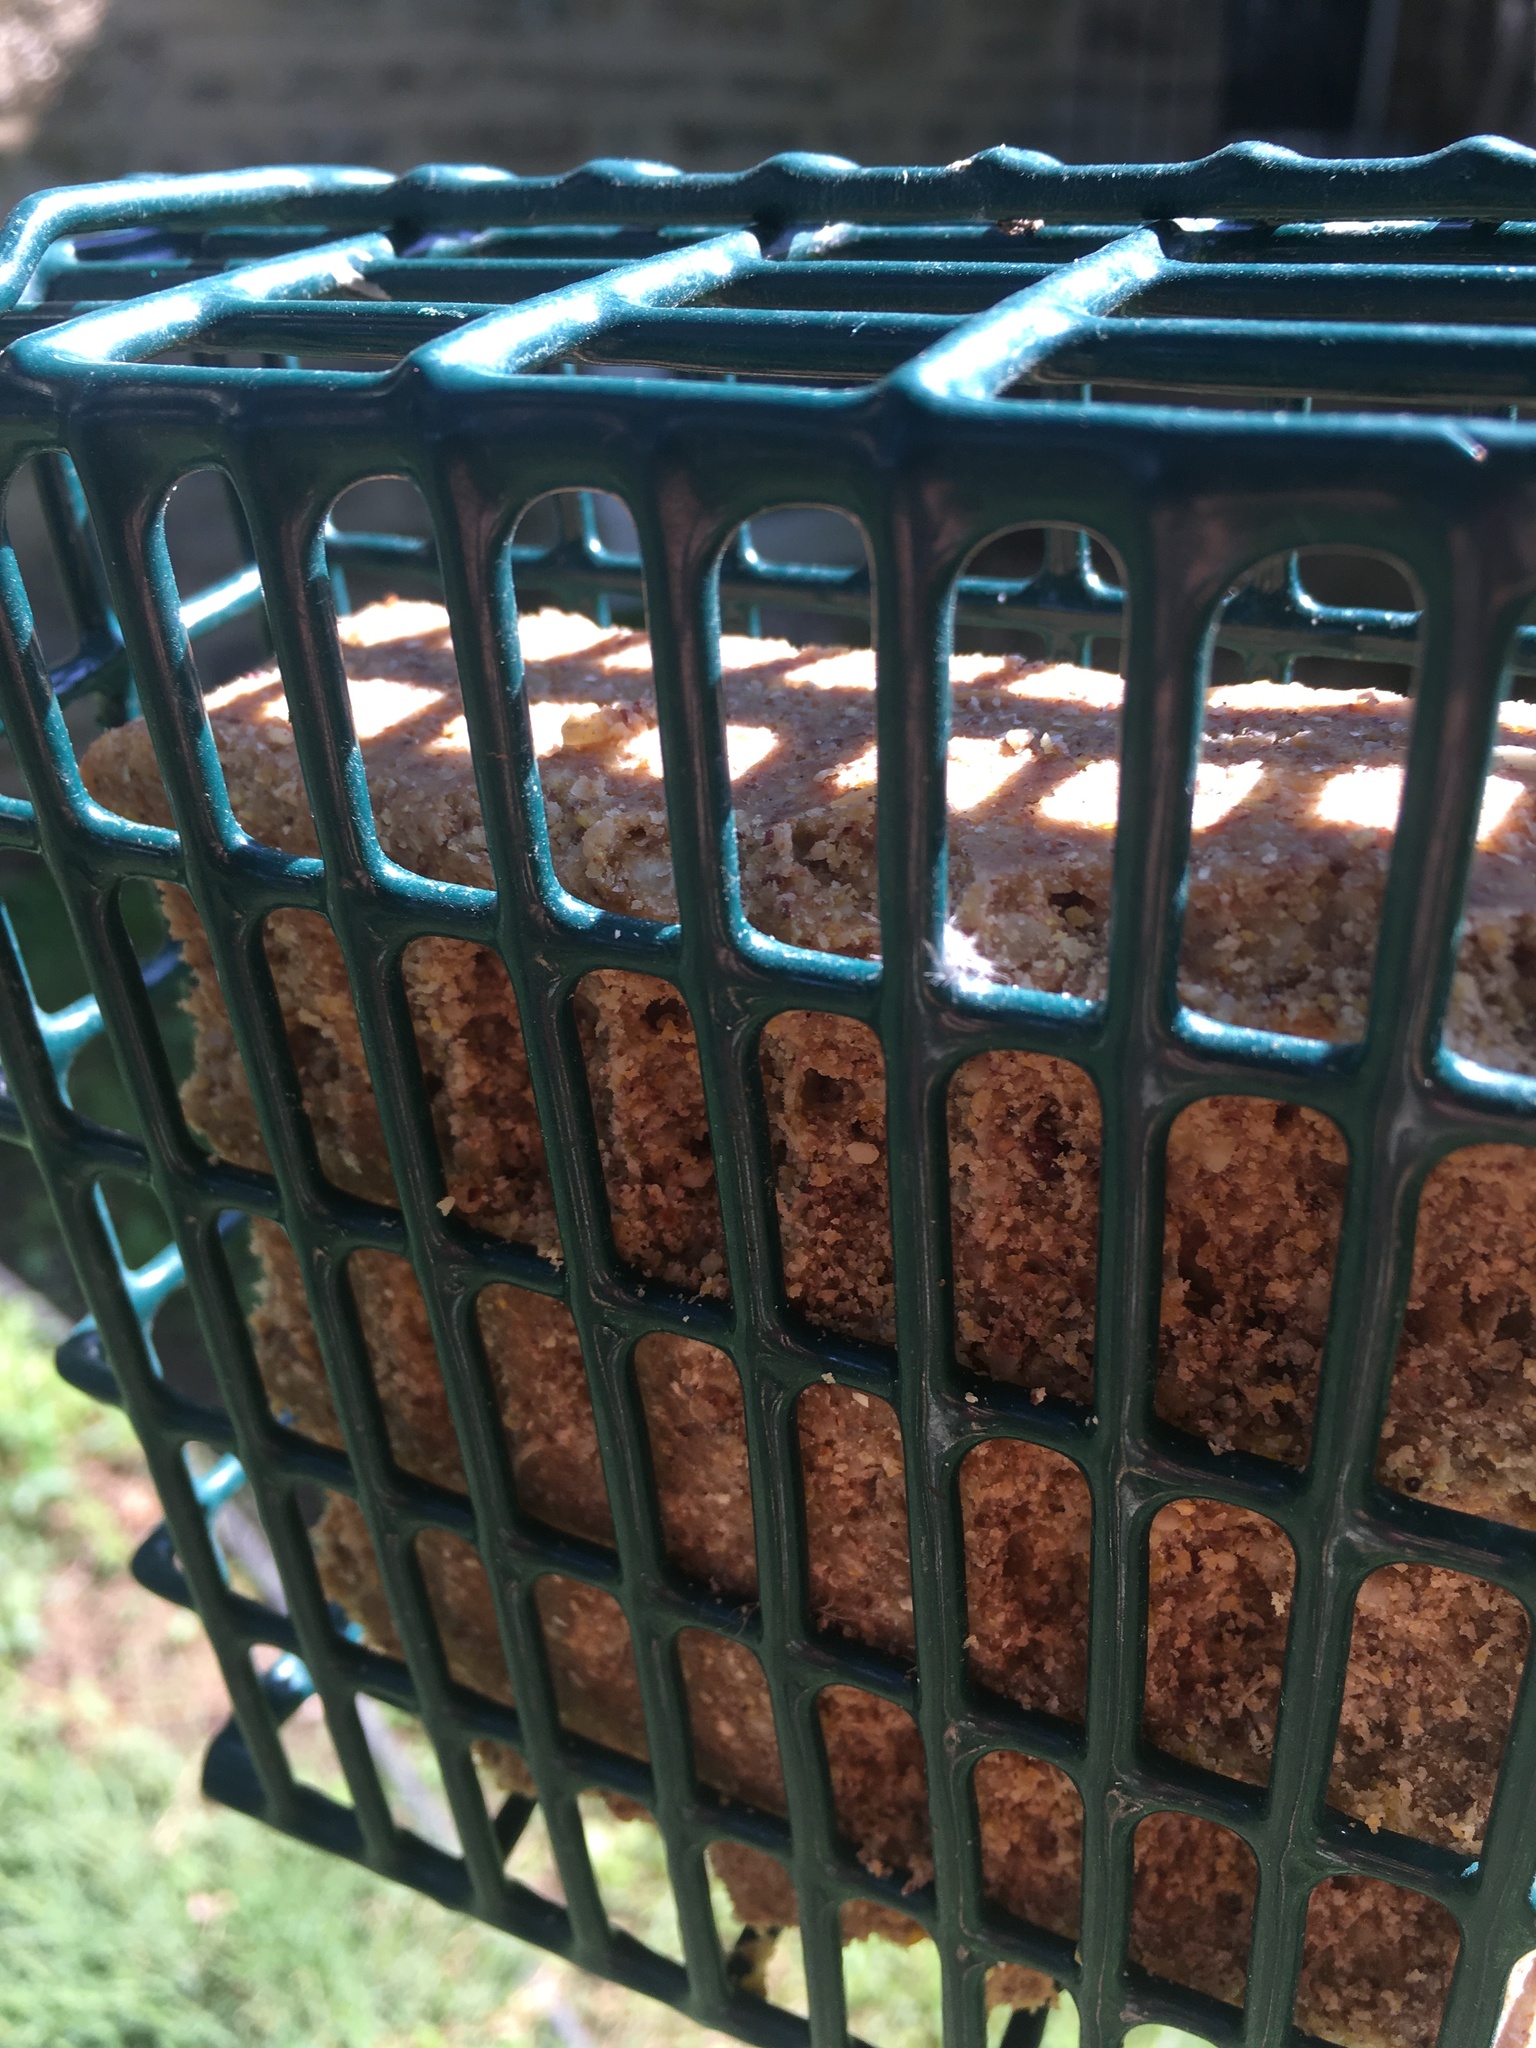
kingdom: Animalia
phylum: Chordata
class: Aves
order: Passeriformes
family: Passeridae
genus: Passer
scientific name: Passer domesticus
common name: House sparrow
